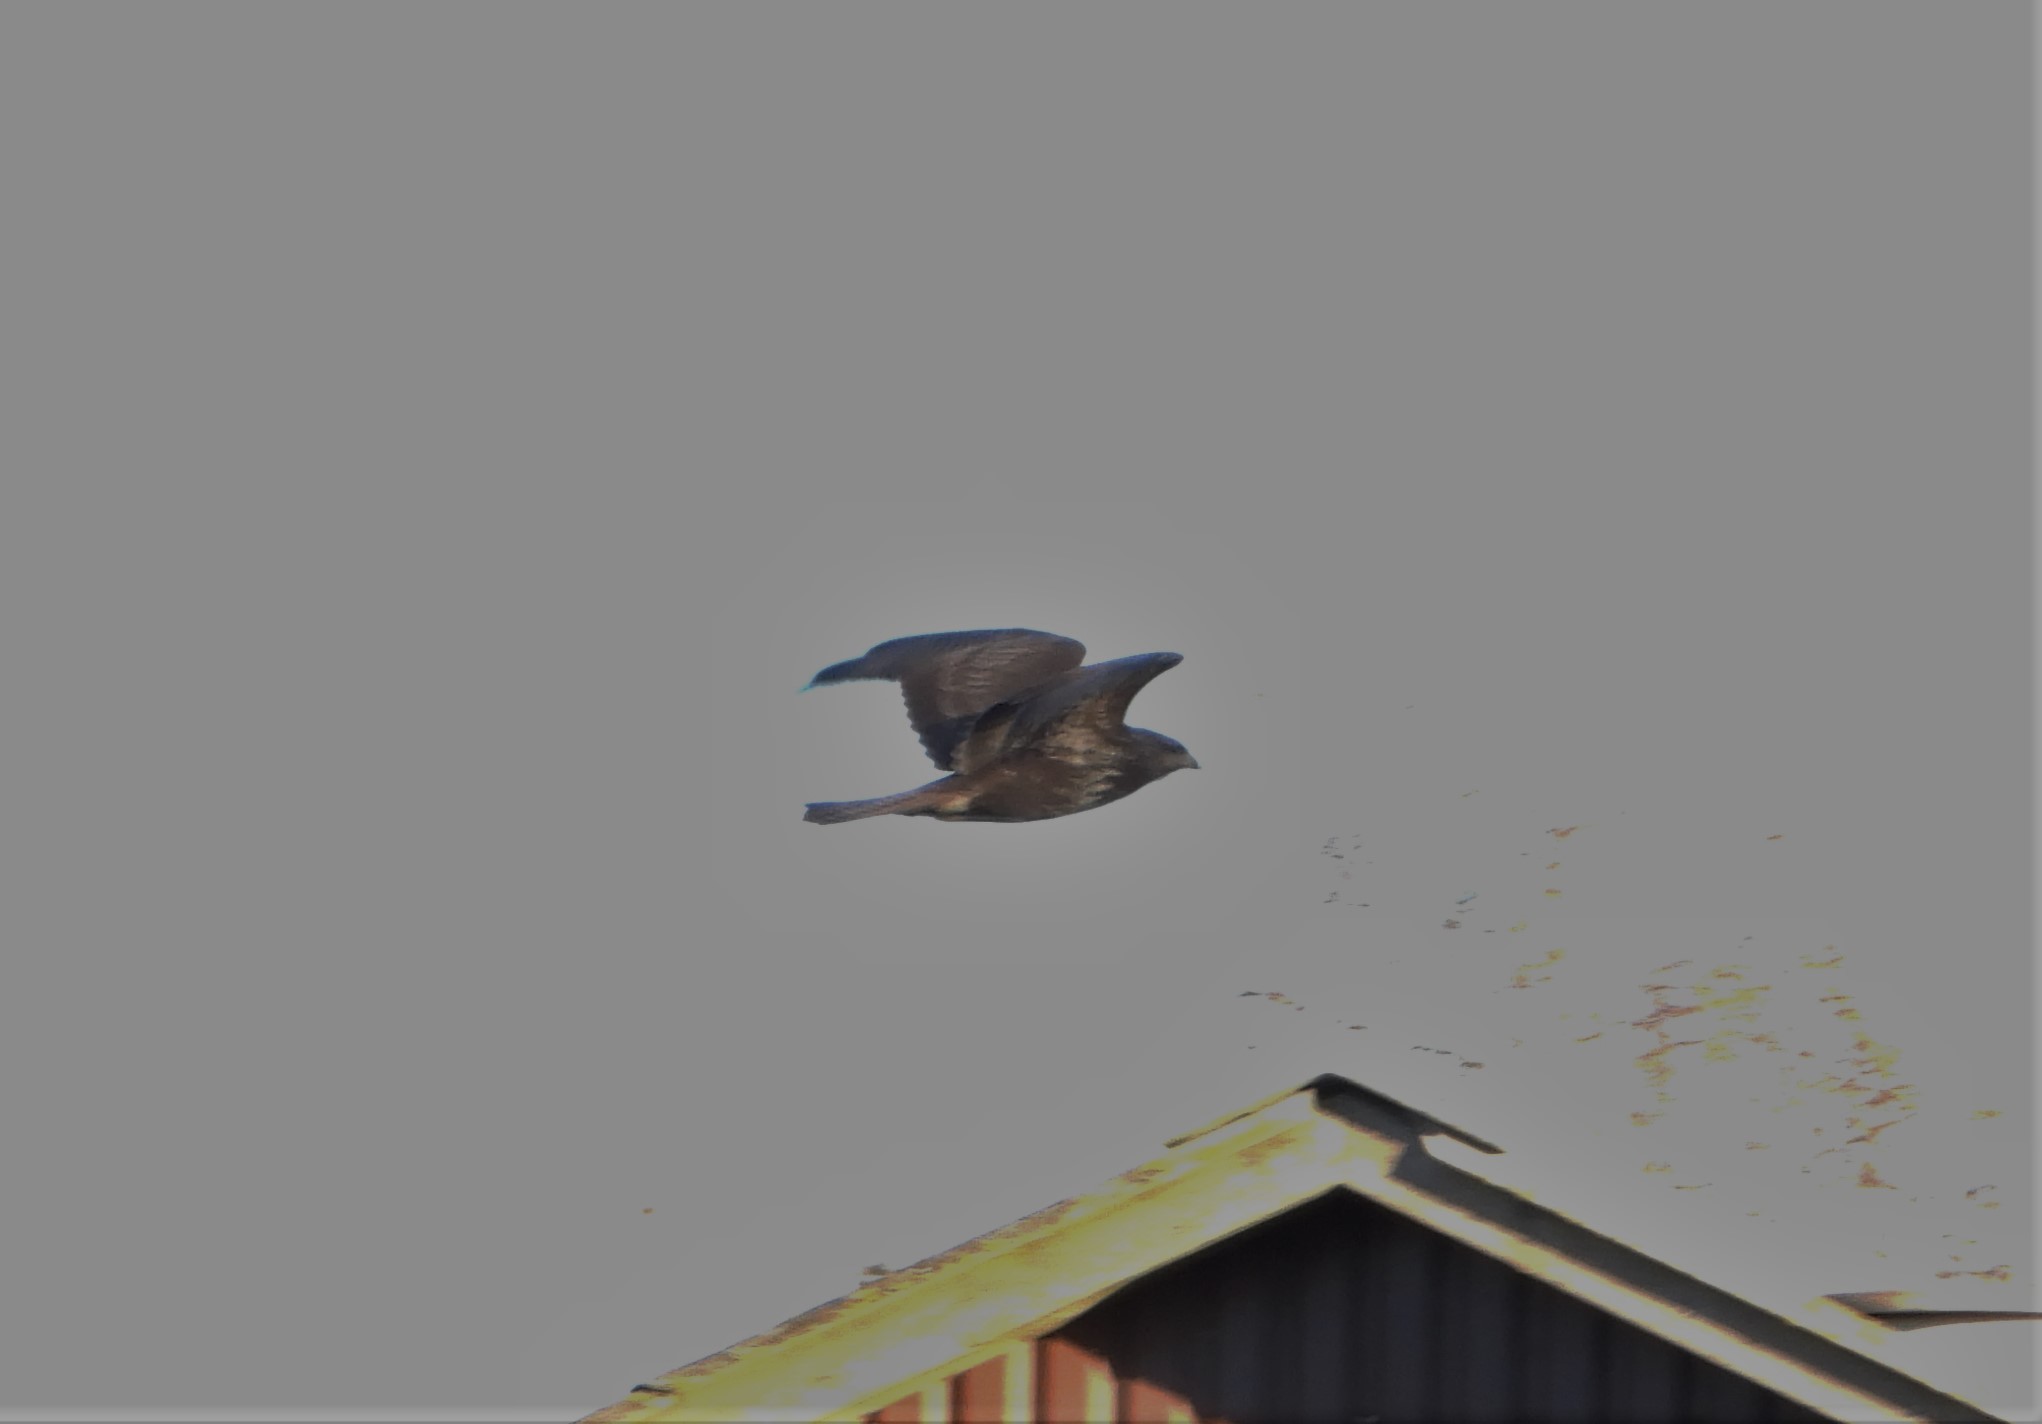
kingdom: Animalia
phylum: Chordata
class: Aves
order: Accipitriformes
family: Accipitridae
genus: Buteo
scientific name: Buteo buteo
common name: Common buzzard
